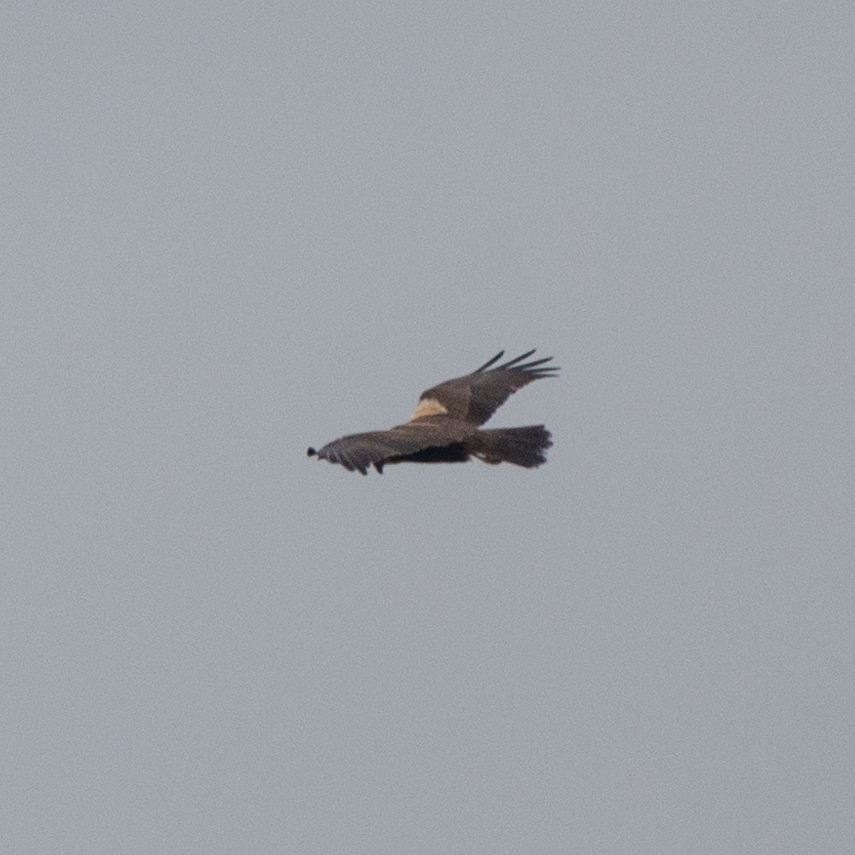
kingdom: Animalia
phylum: Chordata
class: Aves
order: Accipitriformes
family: Accipitridae
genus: Circus
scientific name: Circus aeruginosus
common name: Western marsh harrier
